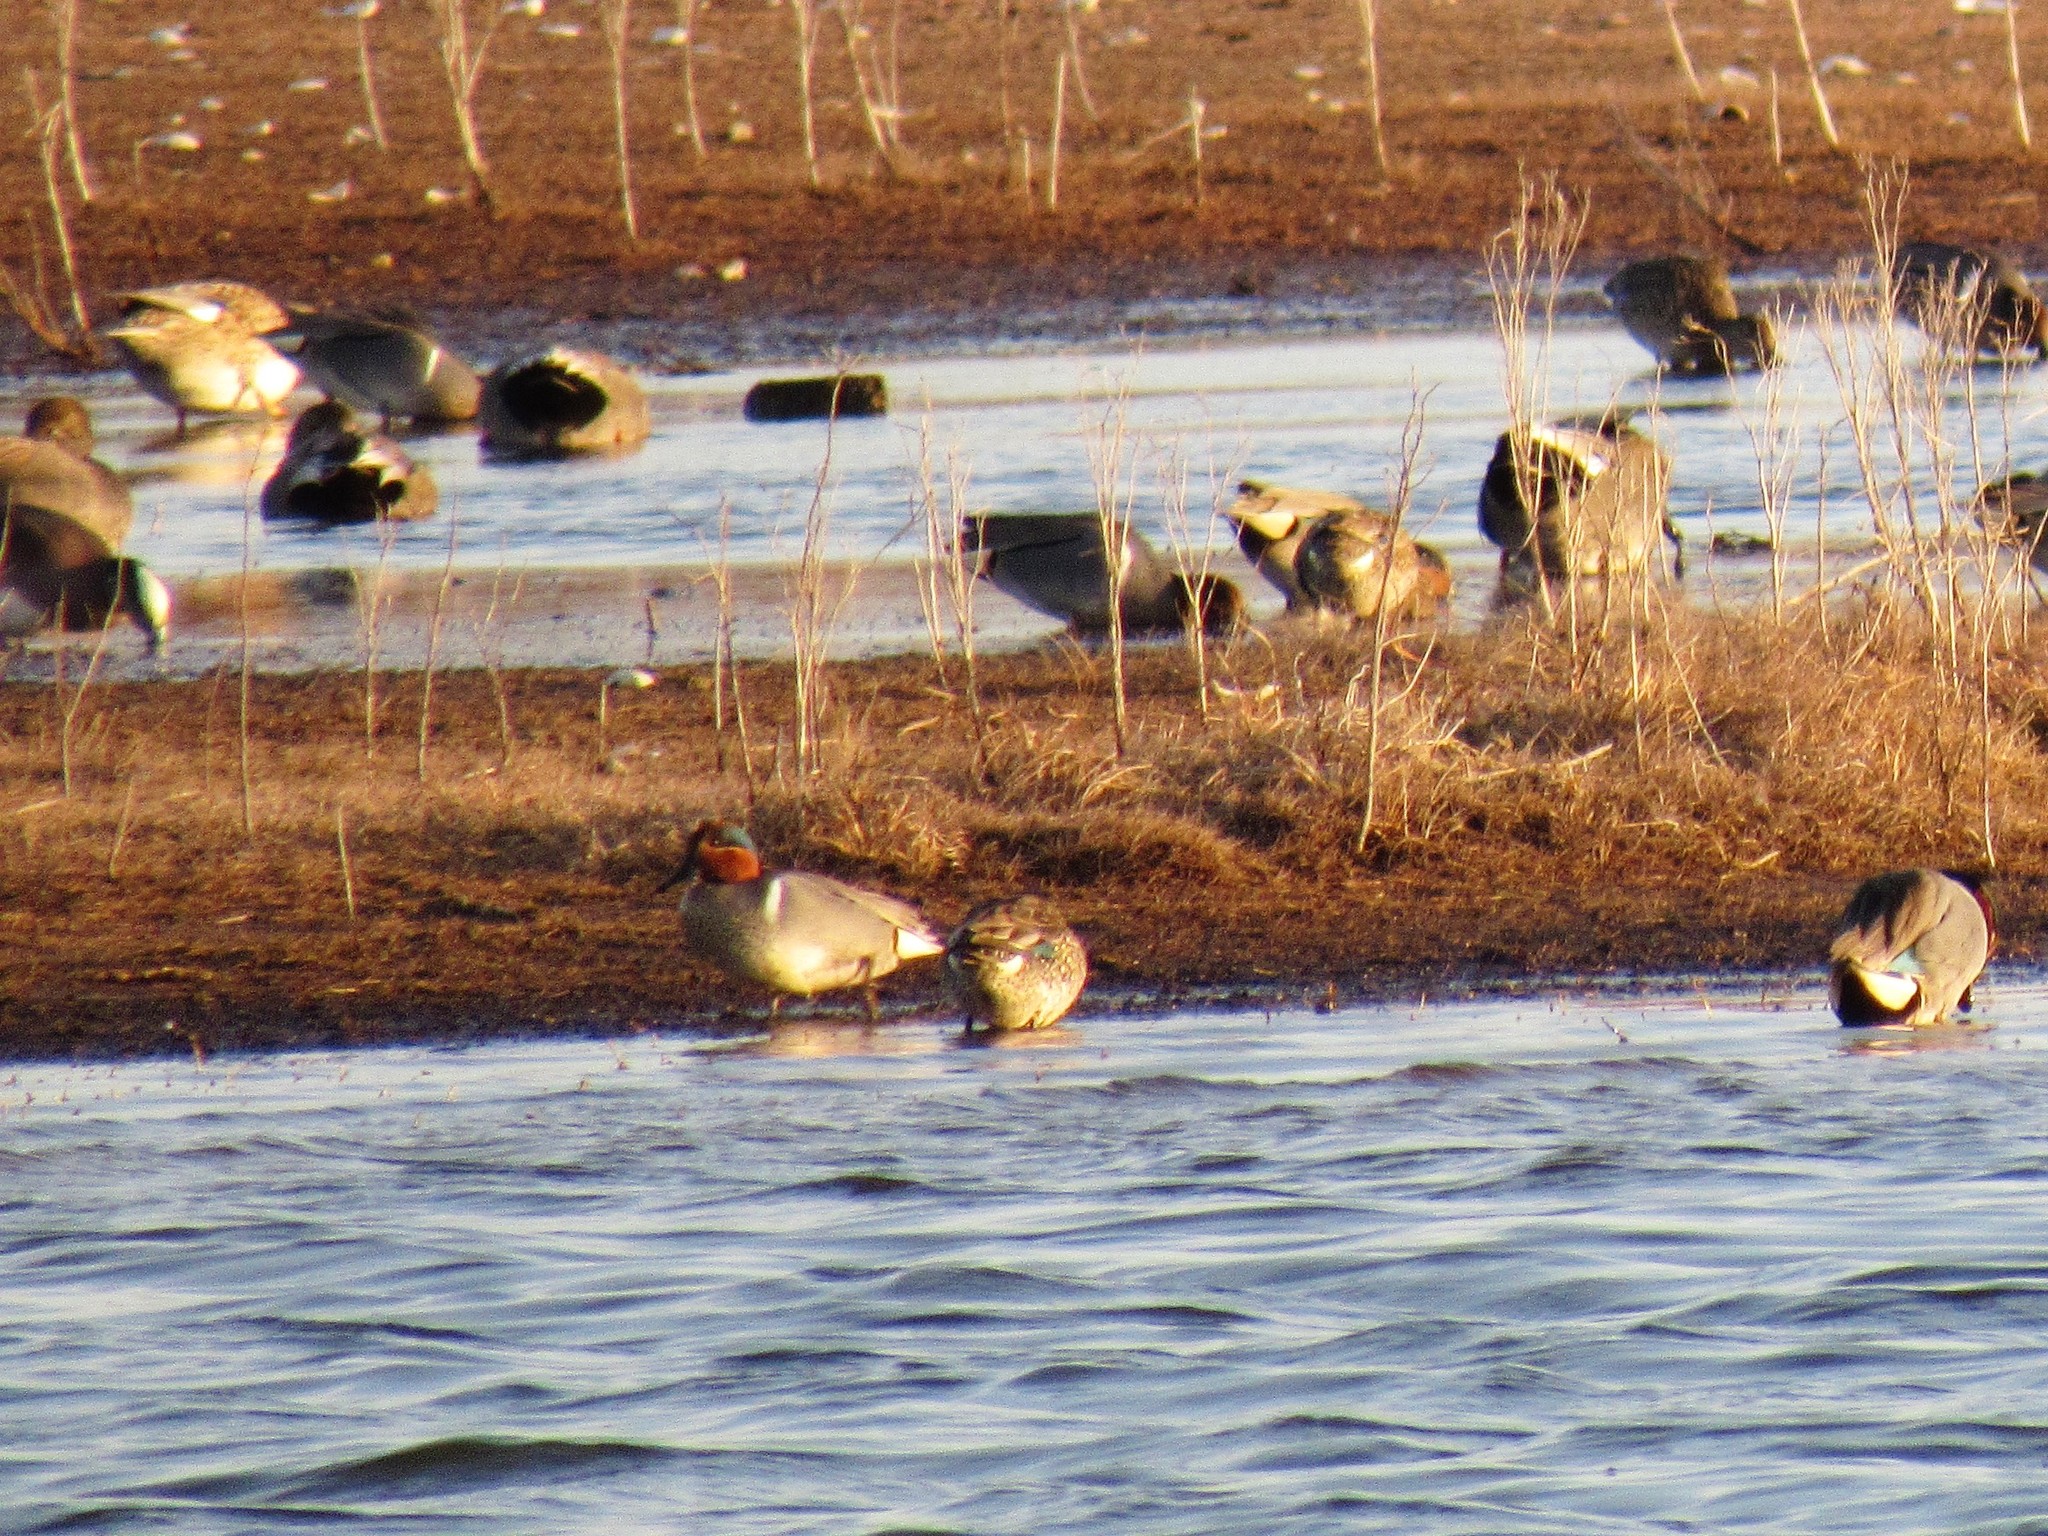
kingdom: Animalia
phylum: Chordata
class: Aves
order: Anseriformes
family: Anatidae
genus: Anas
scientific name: Anas crecca
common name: Eurasian teal
